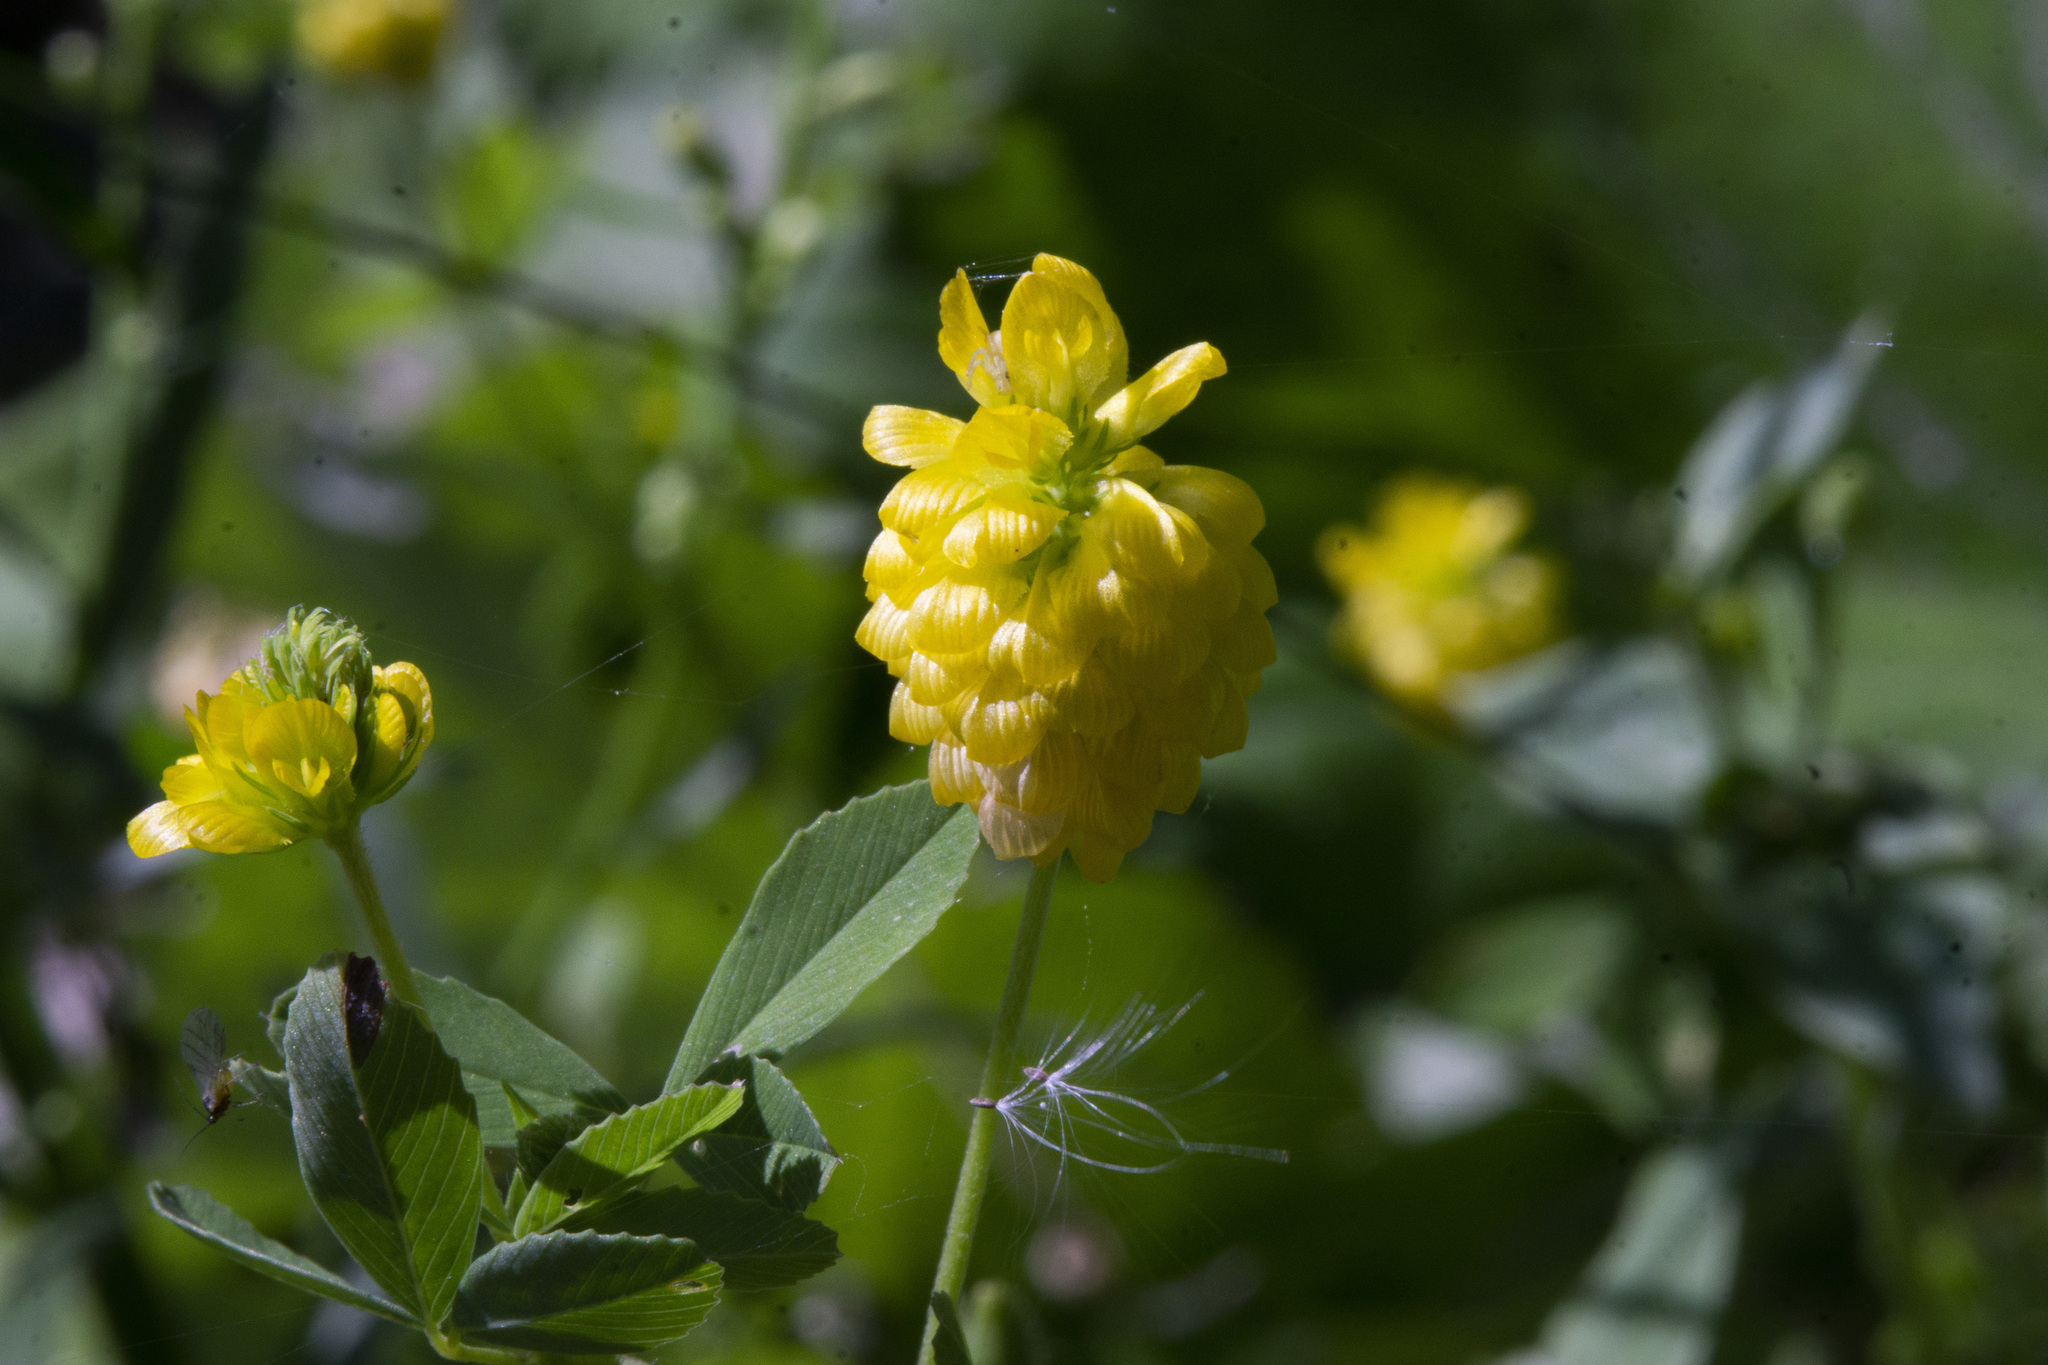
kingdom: Plantae
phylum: Tracheophyta
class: Magnoliopsida
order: Fabales
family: Fabaceae
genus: Trifolium
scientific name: Trifolium aureum
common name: Golden clover
